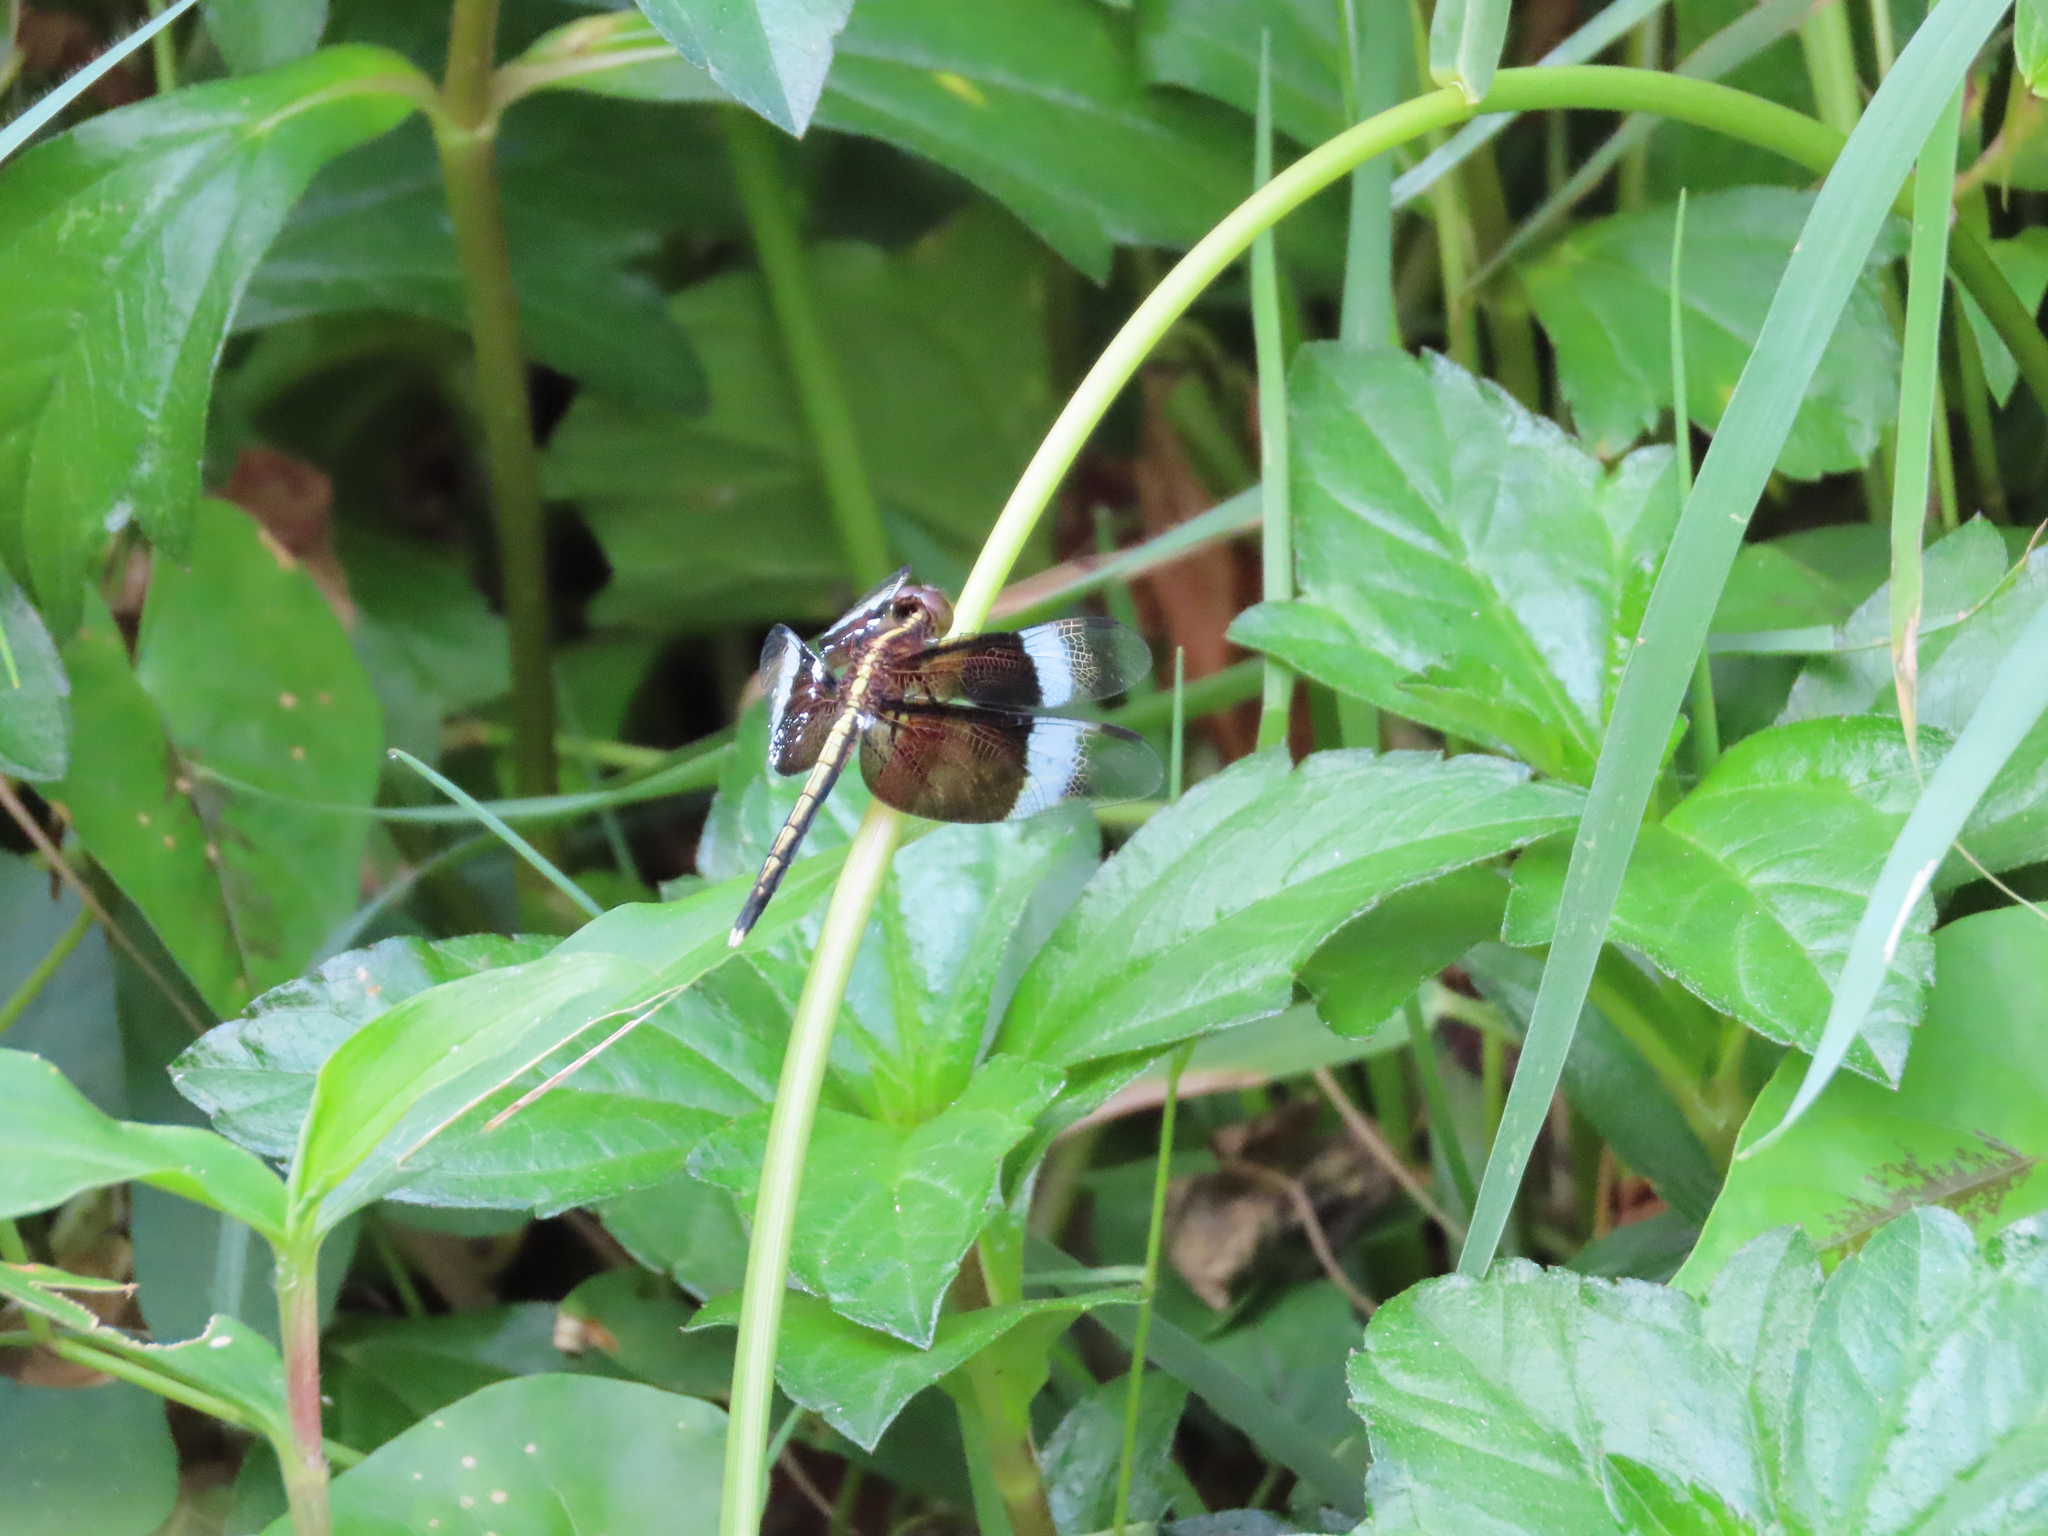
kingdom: Animalia
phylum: Arthropoda
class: Insecta
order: Odonata
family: Libellulidae
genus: Neurothemis
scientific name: Neurothemis tullia
